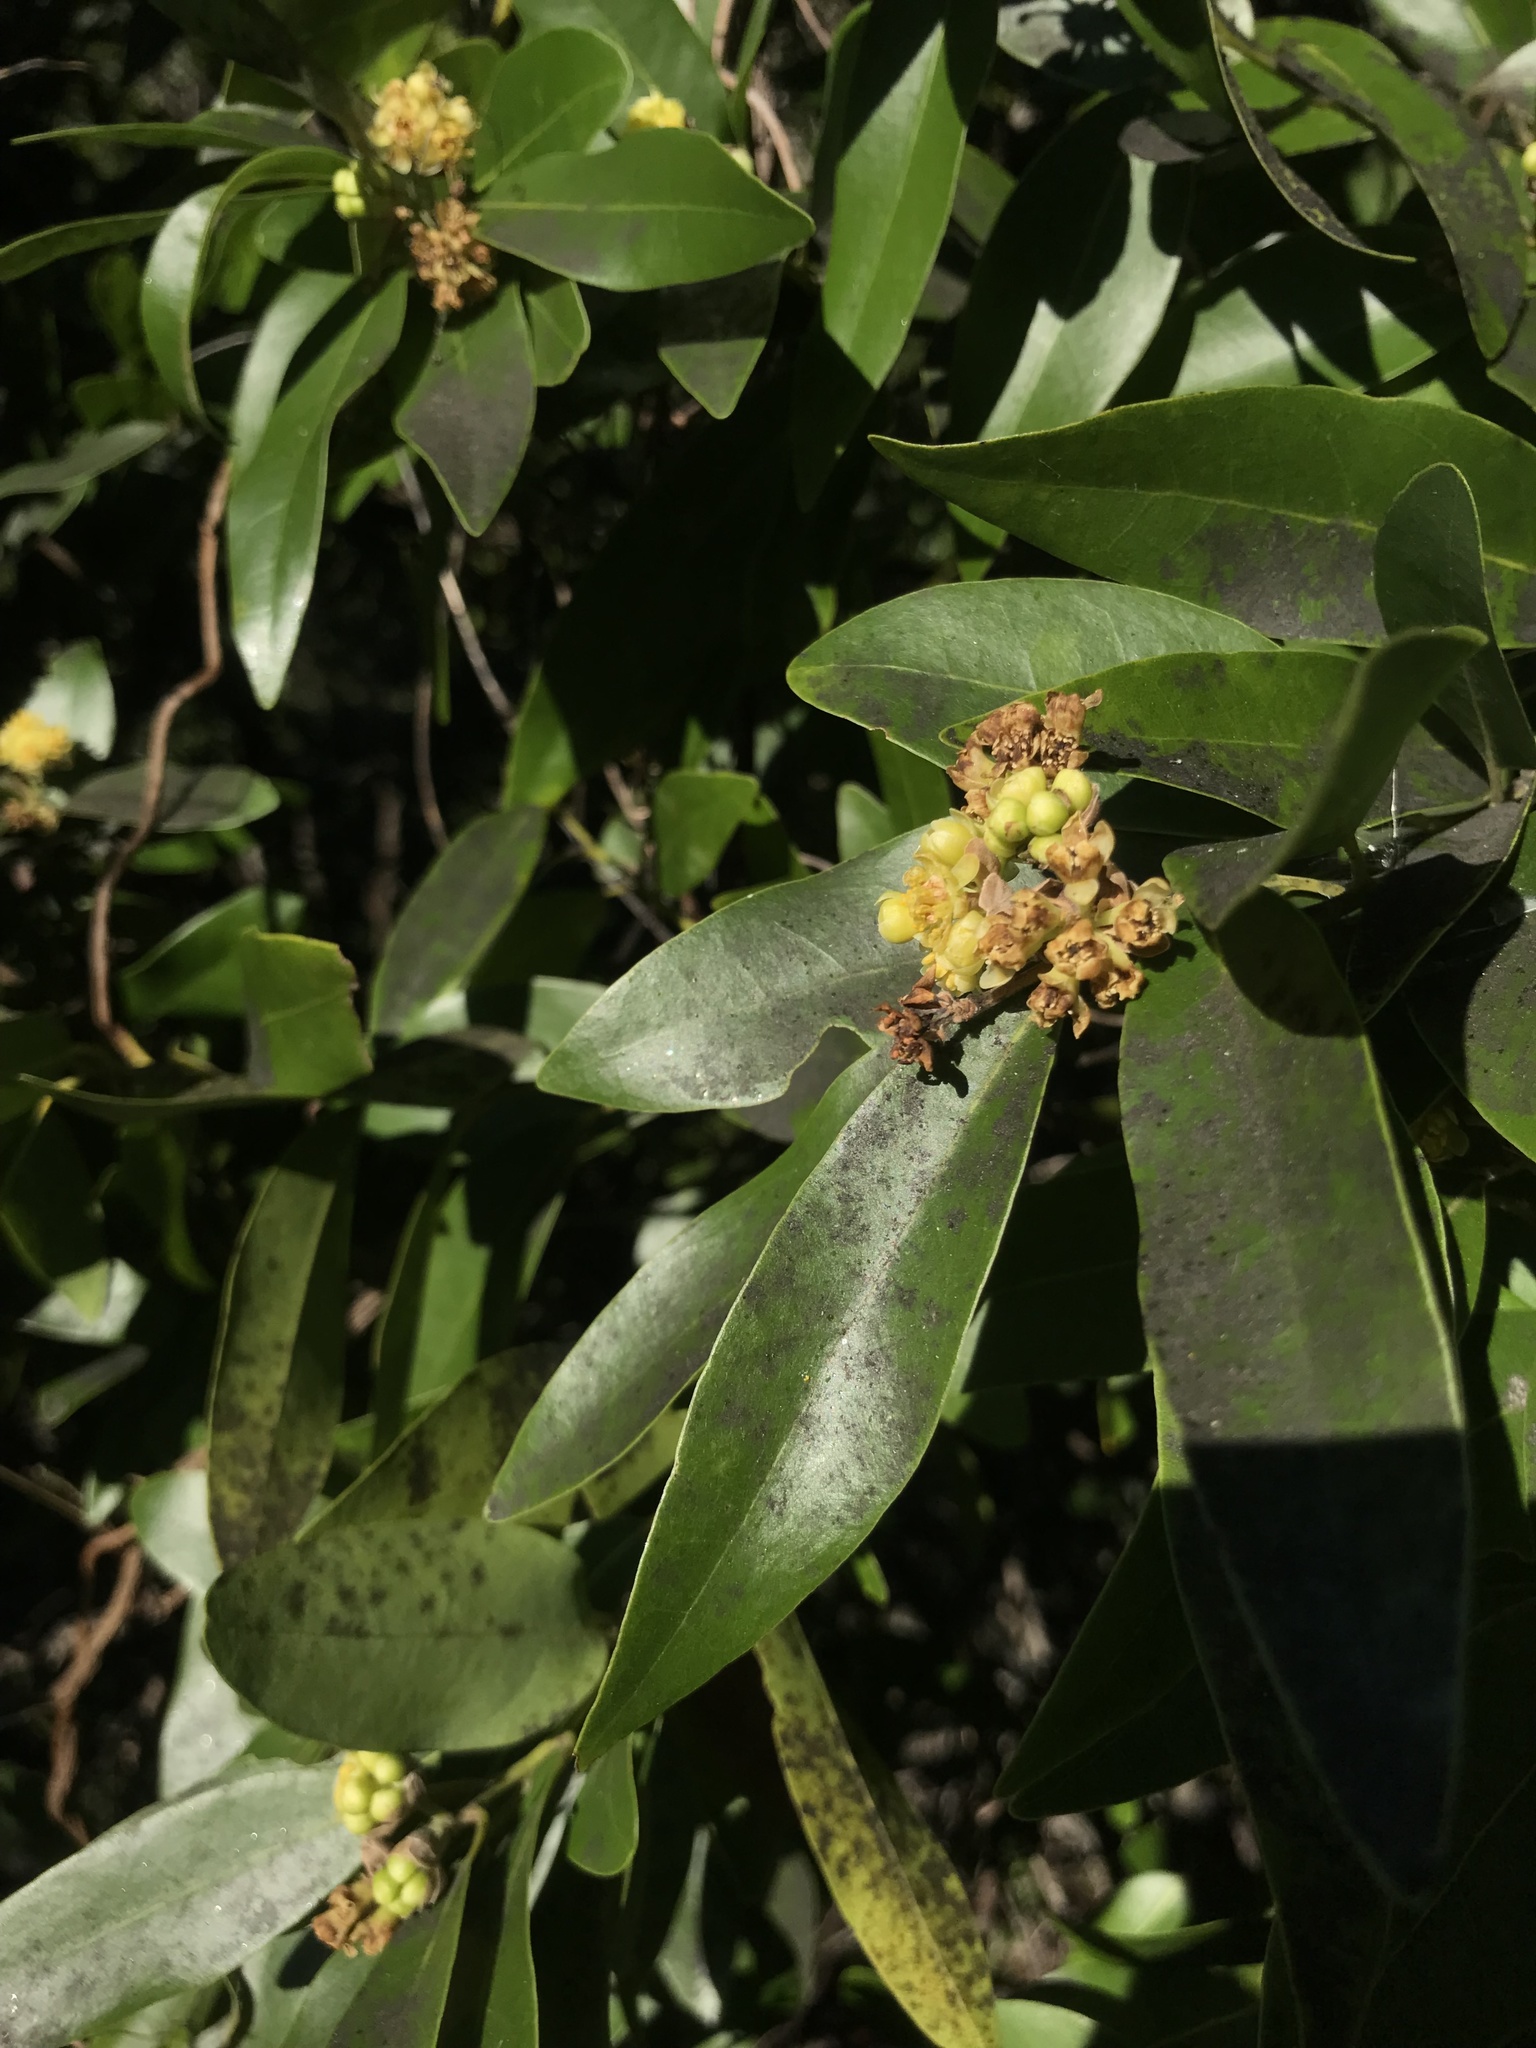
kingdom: Plantae
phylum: Tracheophyta
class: Magnoliopsida
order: Laurales
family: Lauraceae
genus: Umbellularia
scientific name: Umbellularia californica
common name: California bay
